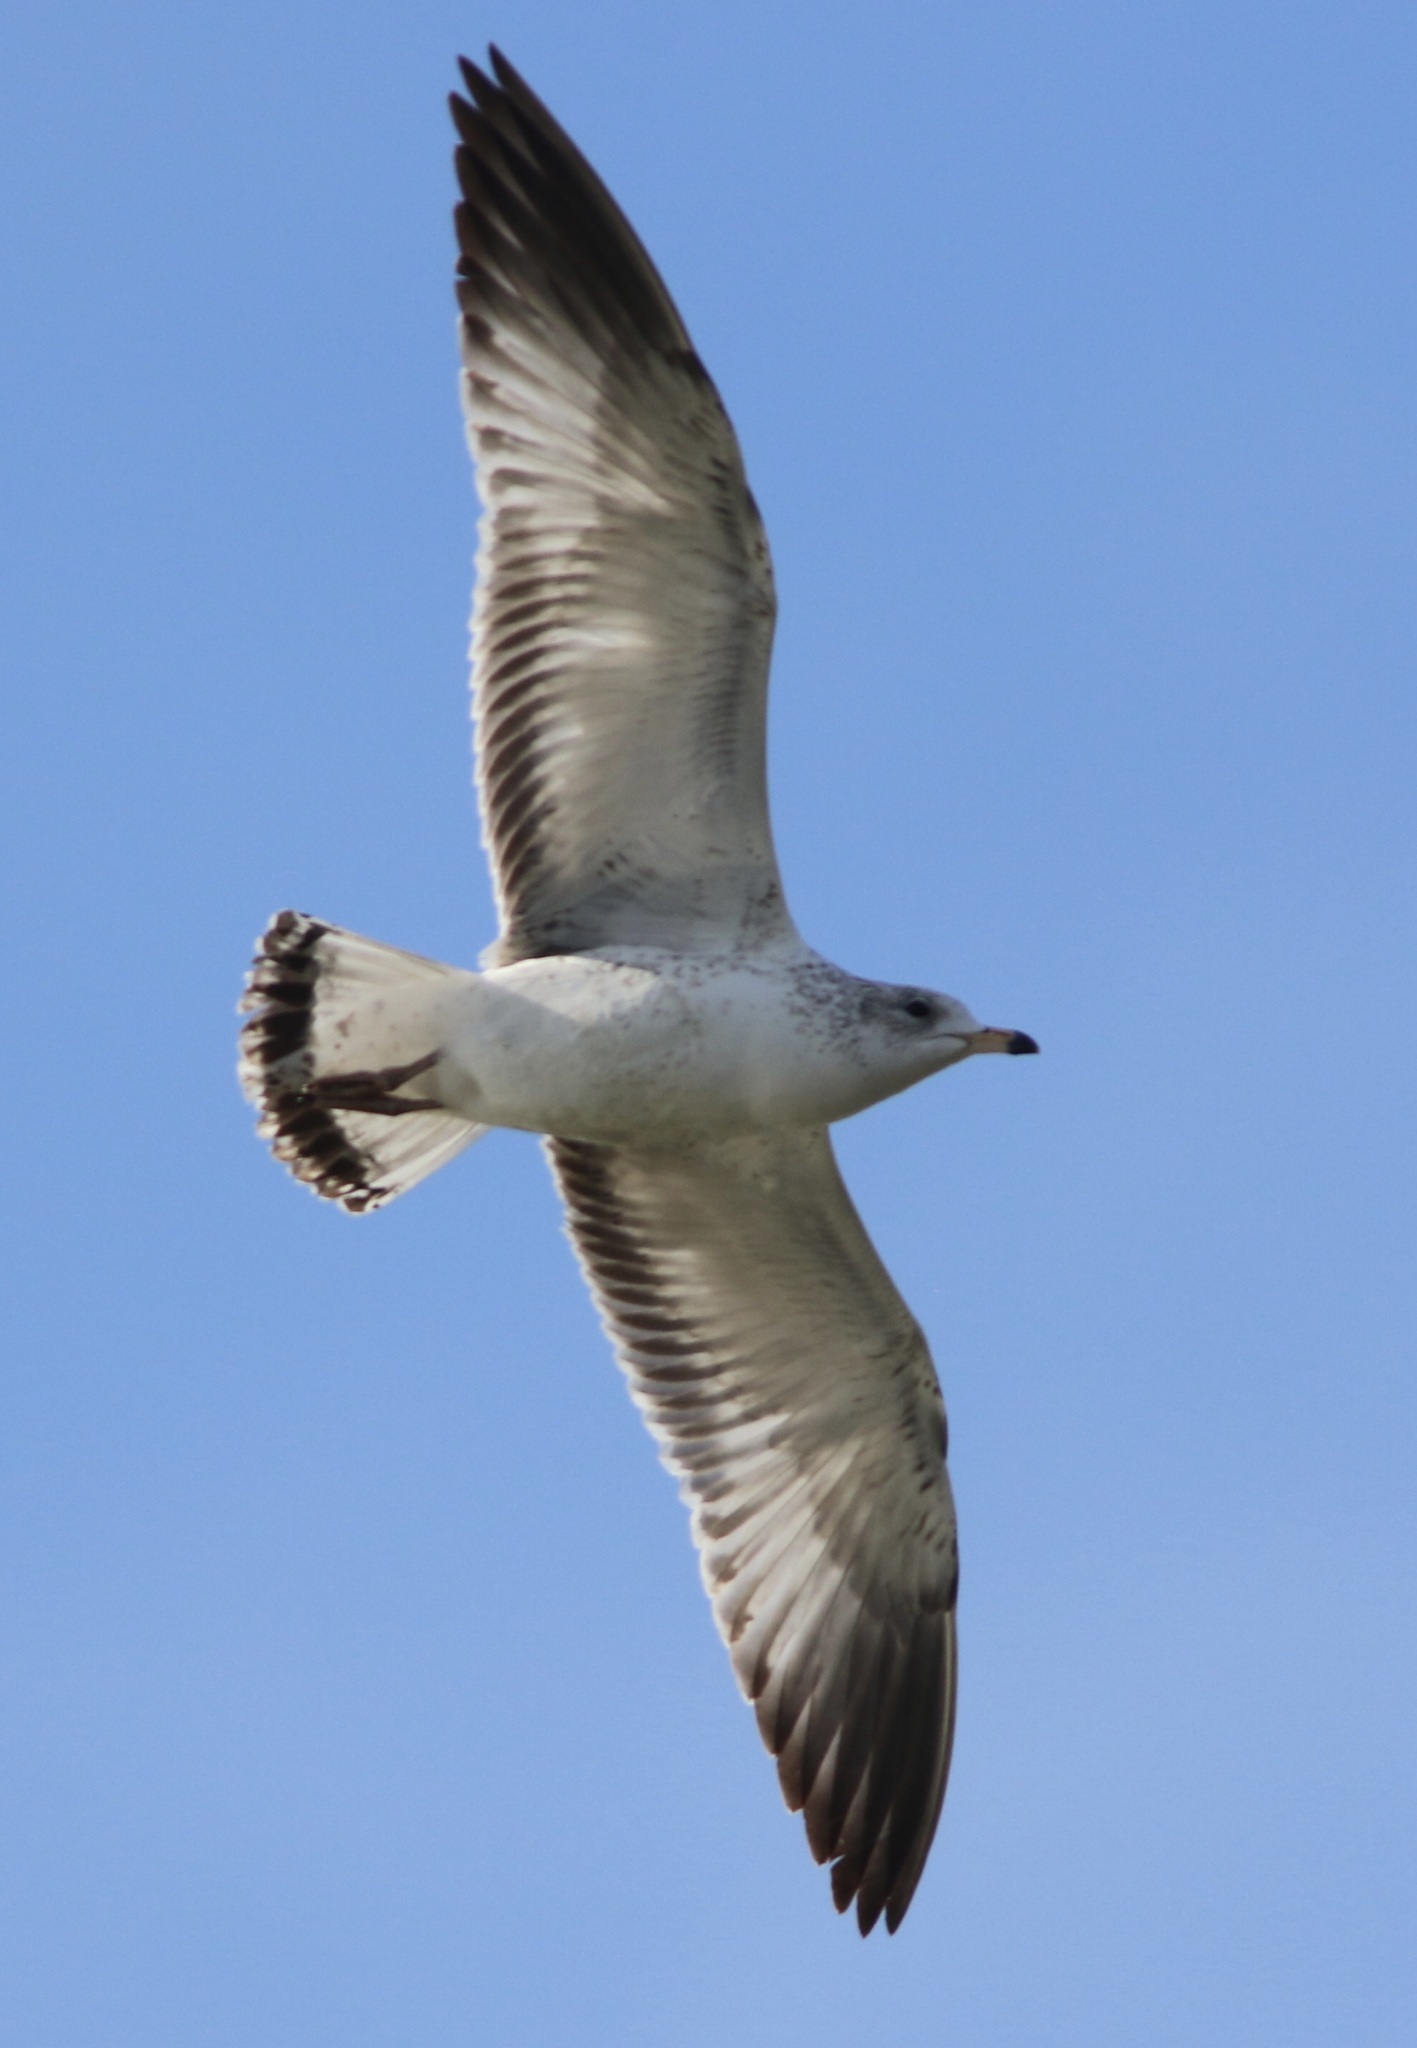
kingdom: Animalia
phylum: Chordata
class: Aves
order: Charadriiformes
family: Laridae
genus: Larus
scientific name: Larus delawarensis
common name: Ring-billed gull
